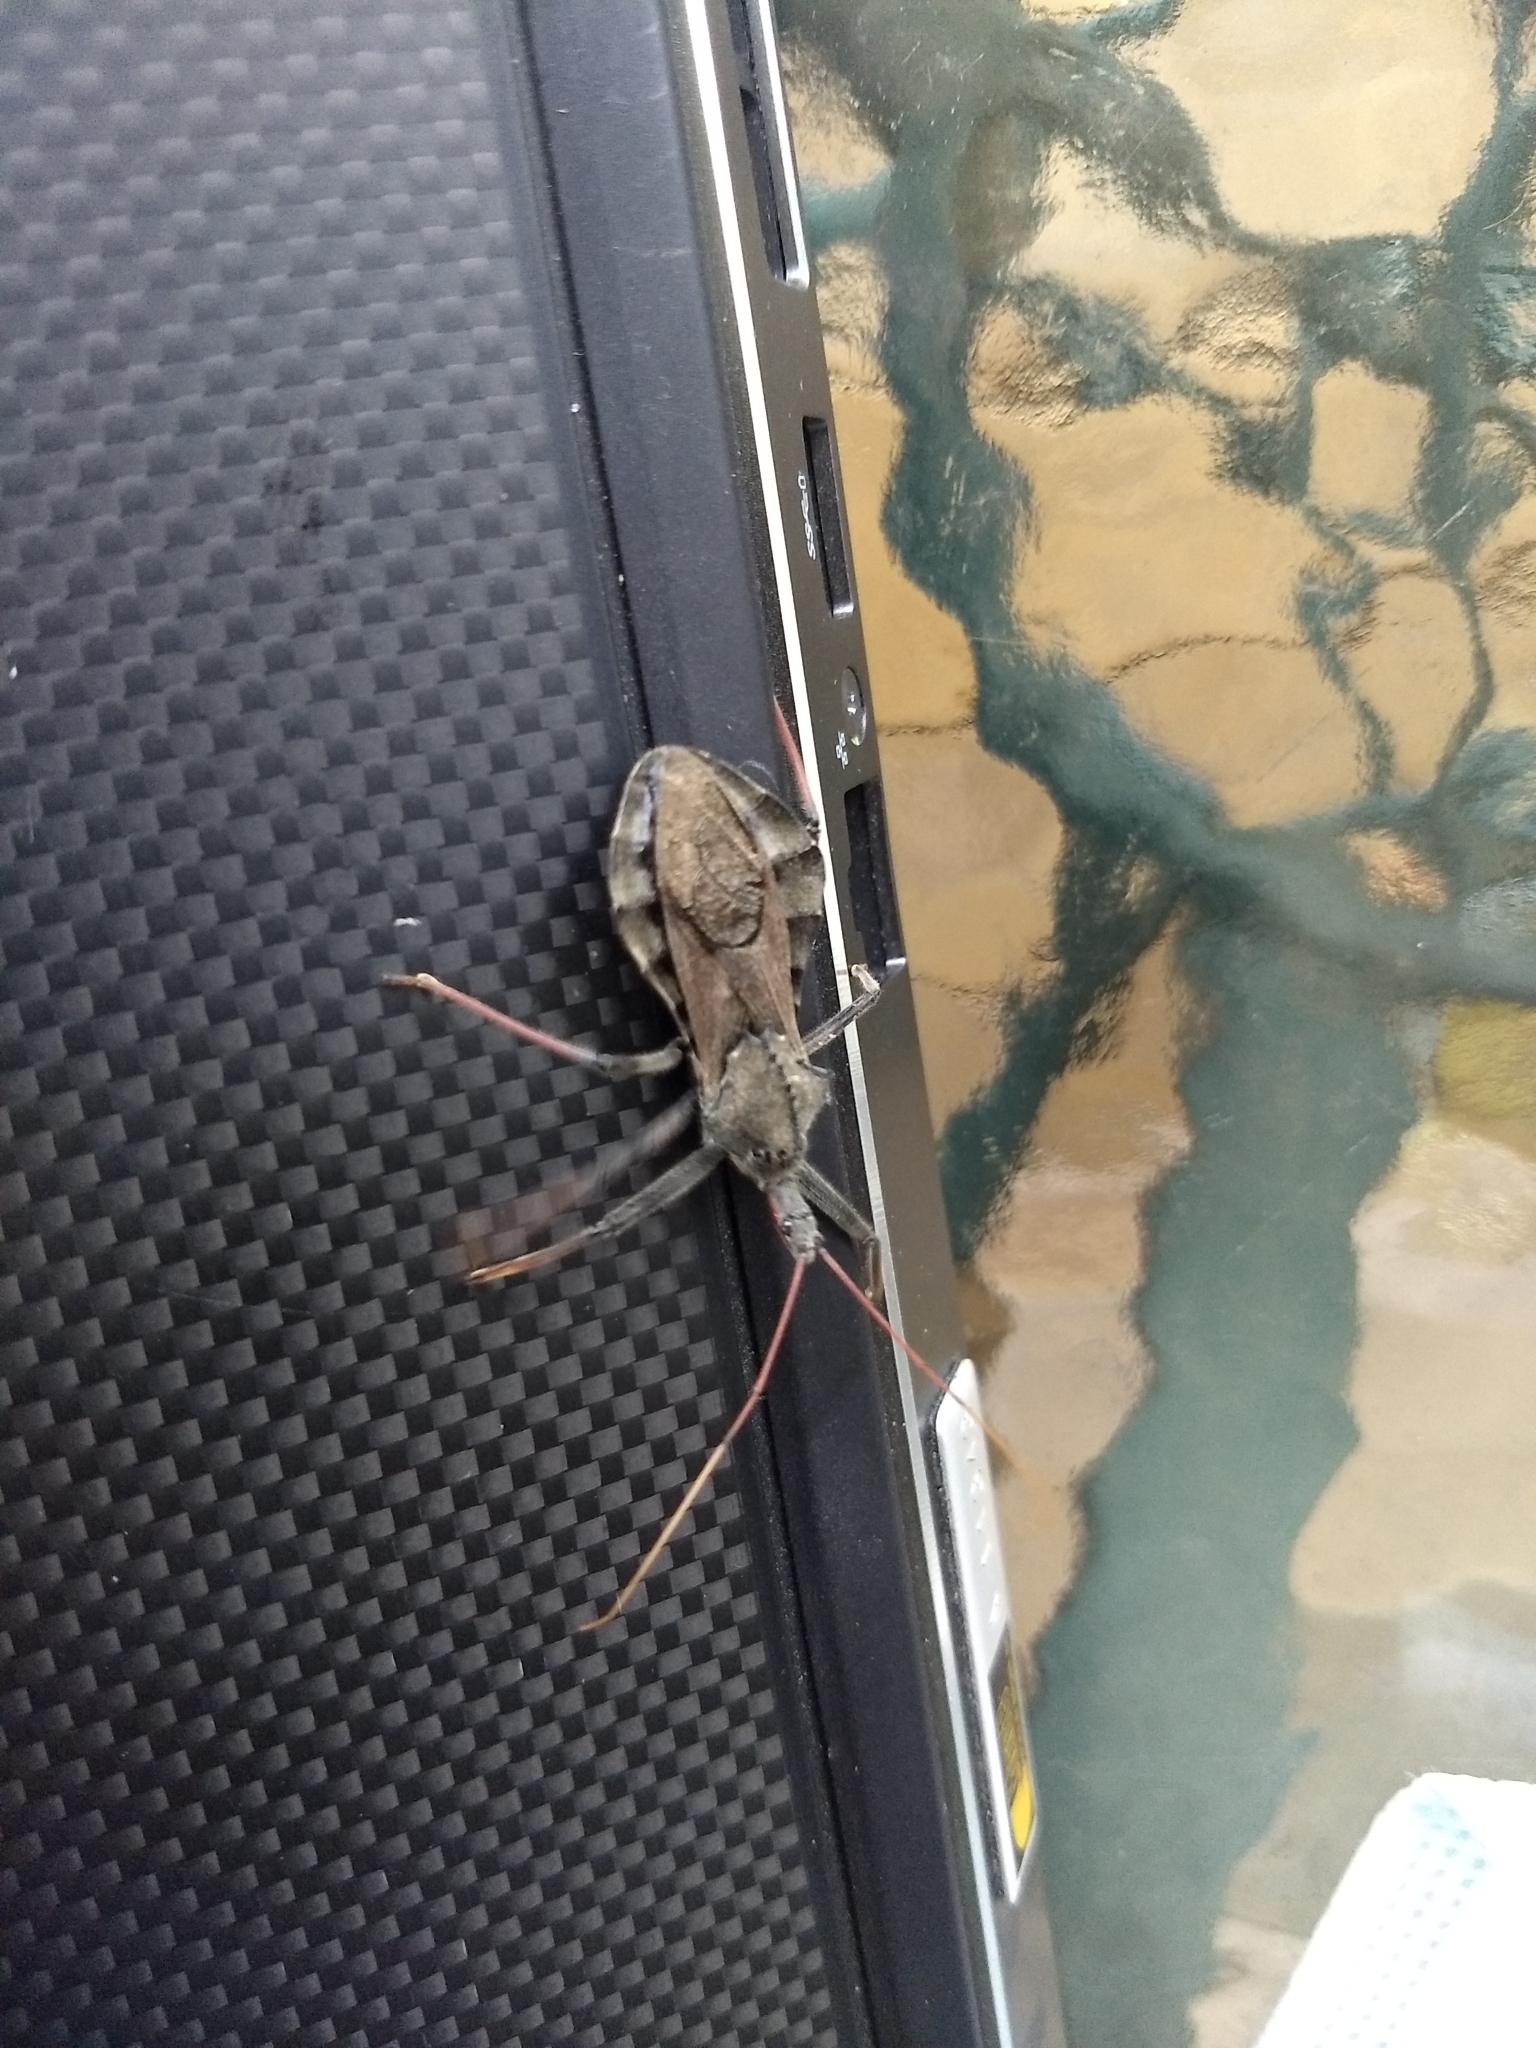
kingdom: Animalia
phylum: Arthropoda
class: Insecta
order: Hemiptera
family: Reduviidae
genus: Arilus
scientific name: Arilus cristatus
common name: North american wheel bug
